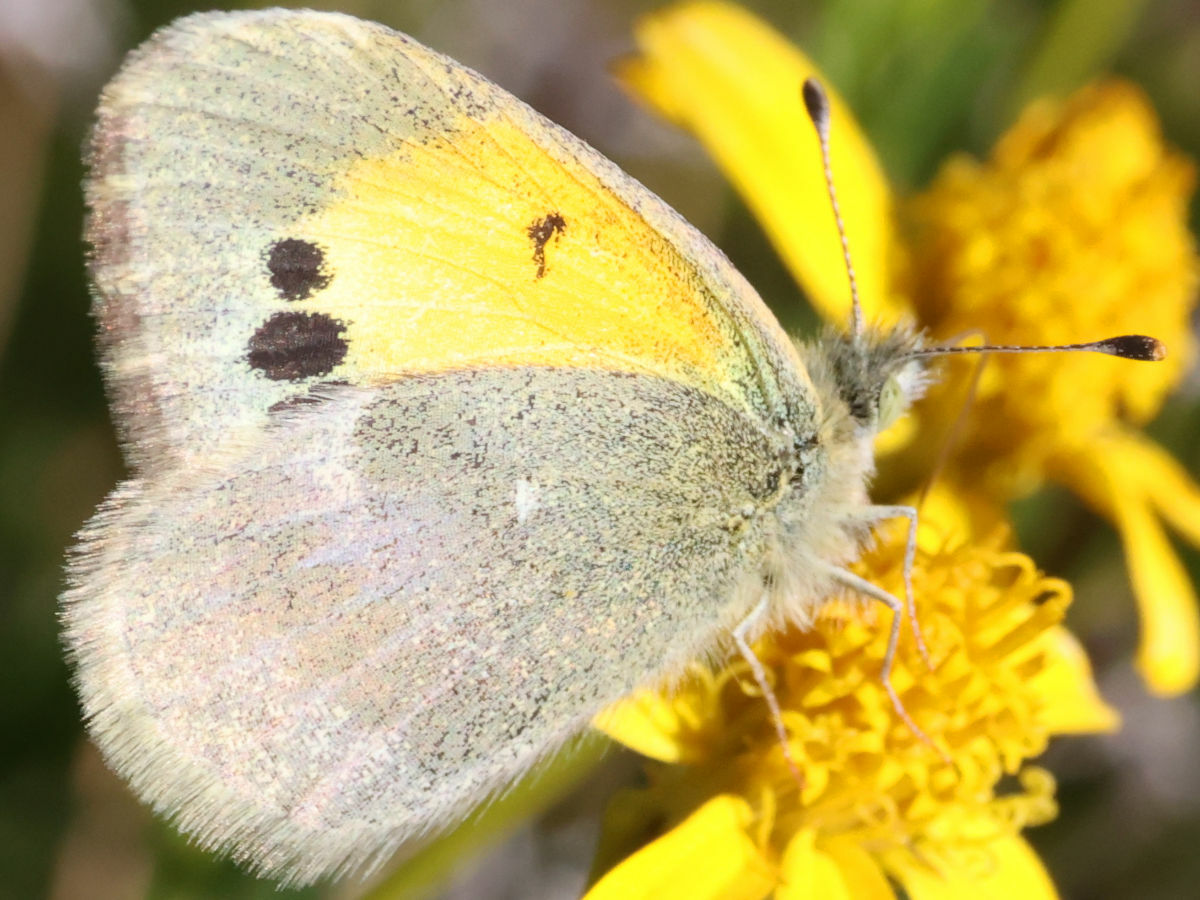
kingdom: Animalia
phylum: Arthropoda
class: Insecta
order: Lepidoptera
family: Pieridae
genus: Nathalis
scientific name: Nathalis iole
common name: Dainty sulphur
